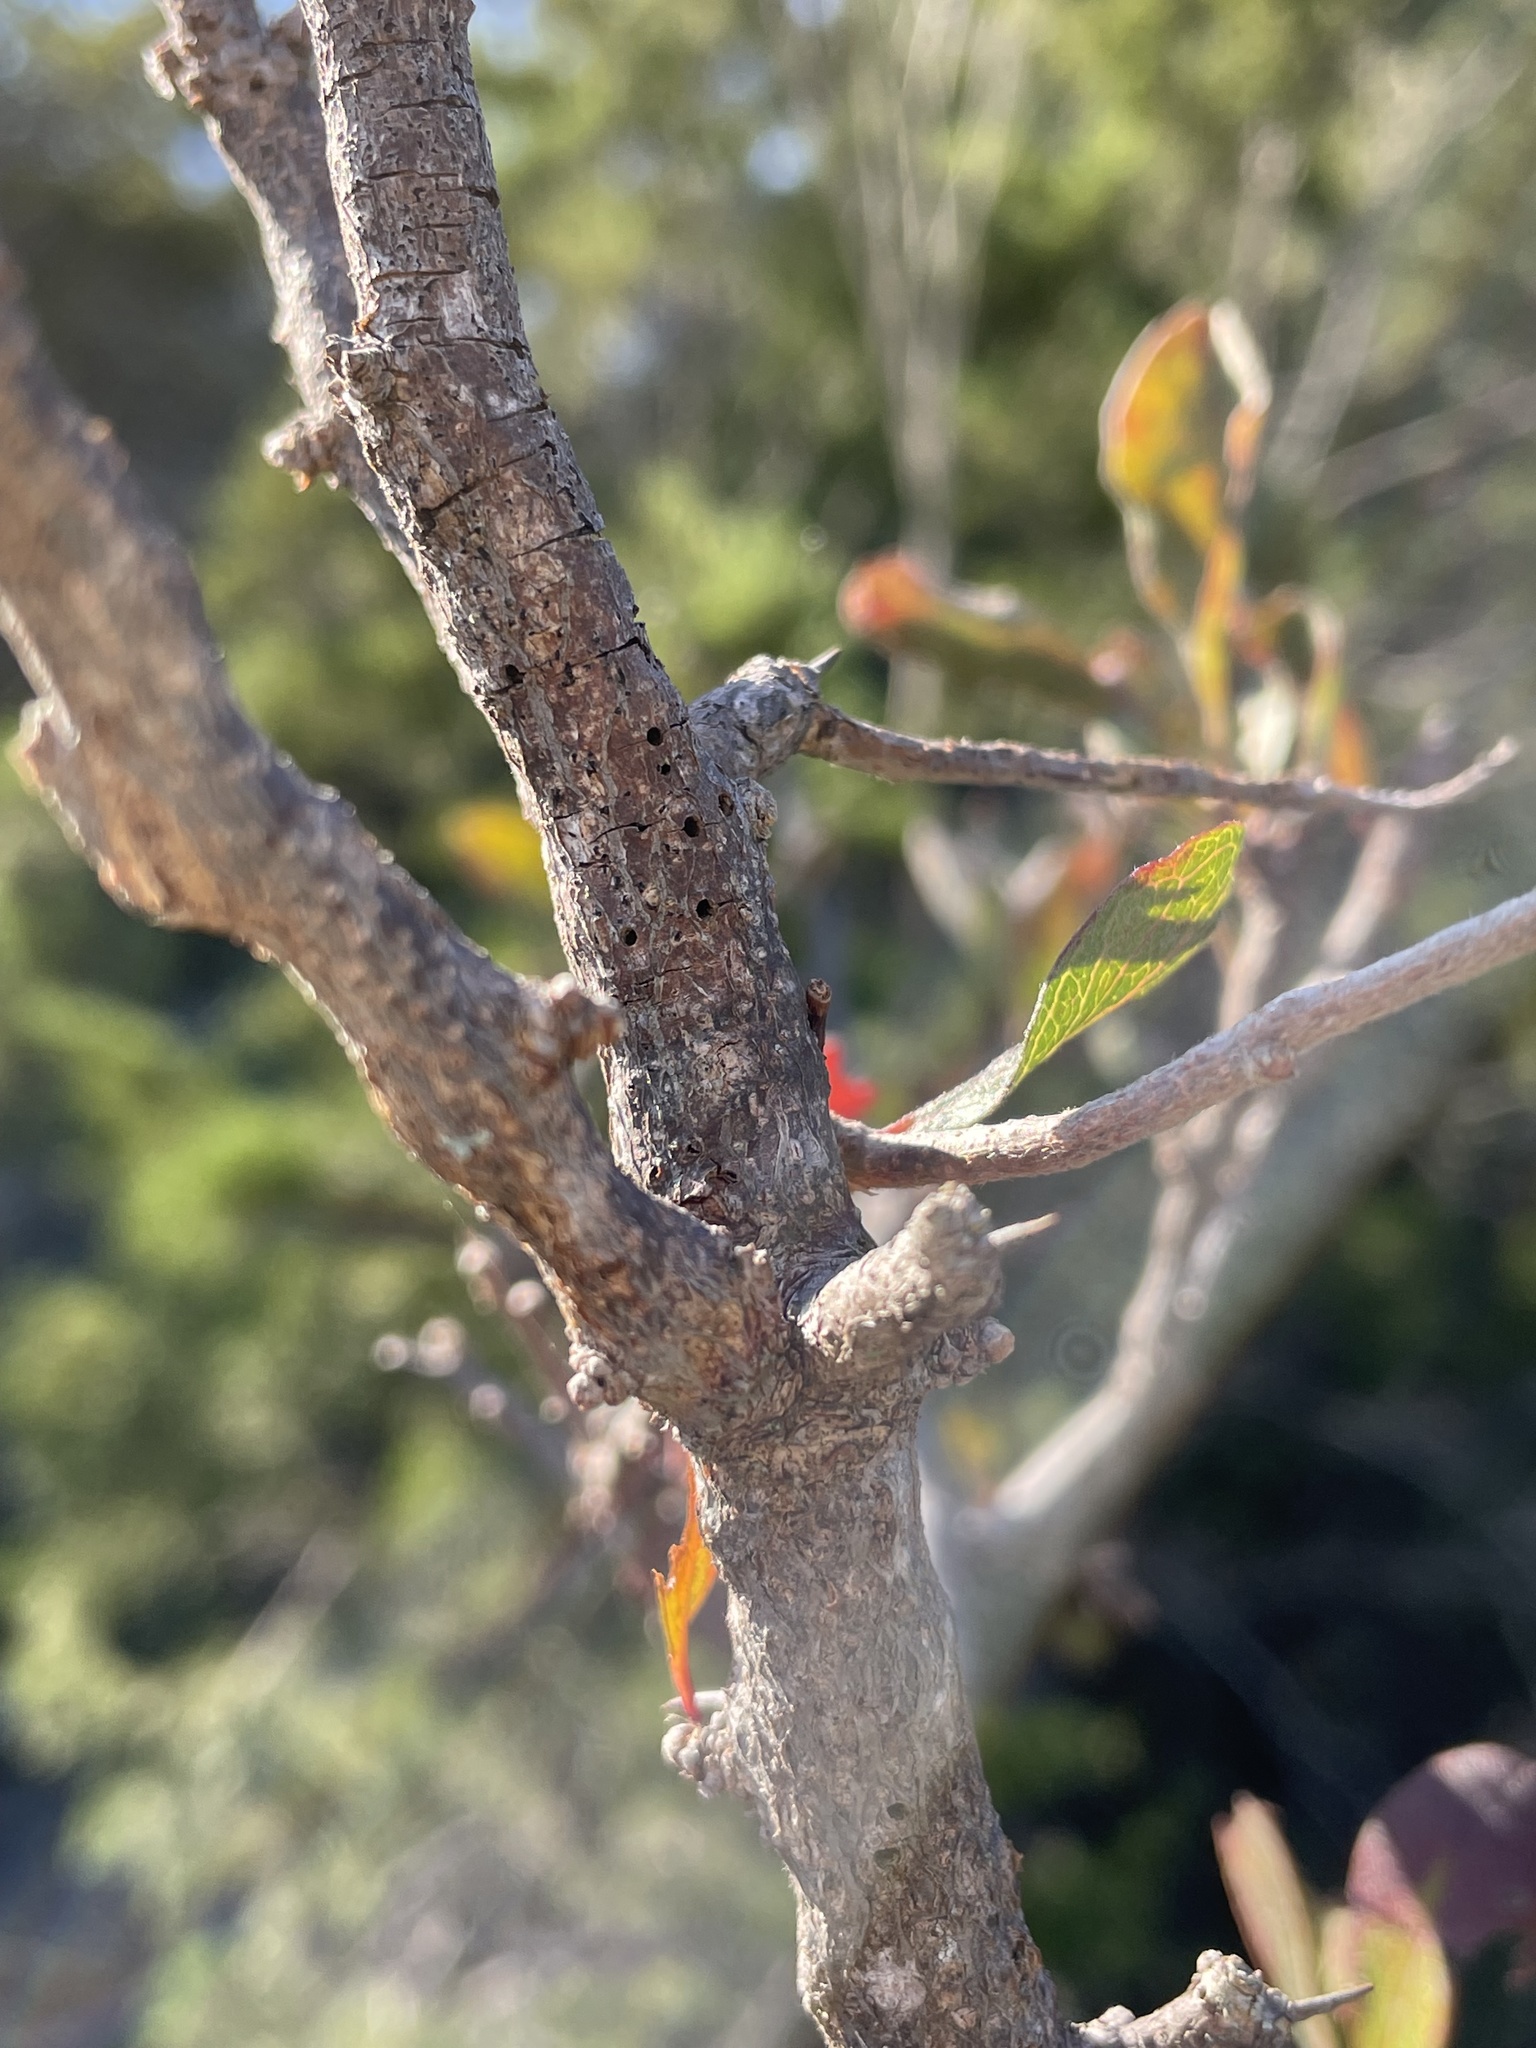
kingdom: Animalia
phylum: Arthropoda
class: Insecta
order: Diptera
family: Cecidomyiidae
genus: Bruggmanniella
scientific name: Bruggmanniella bumeliae
